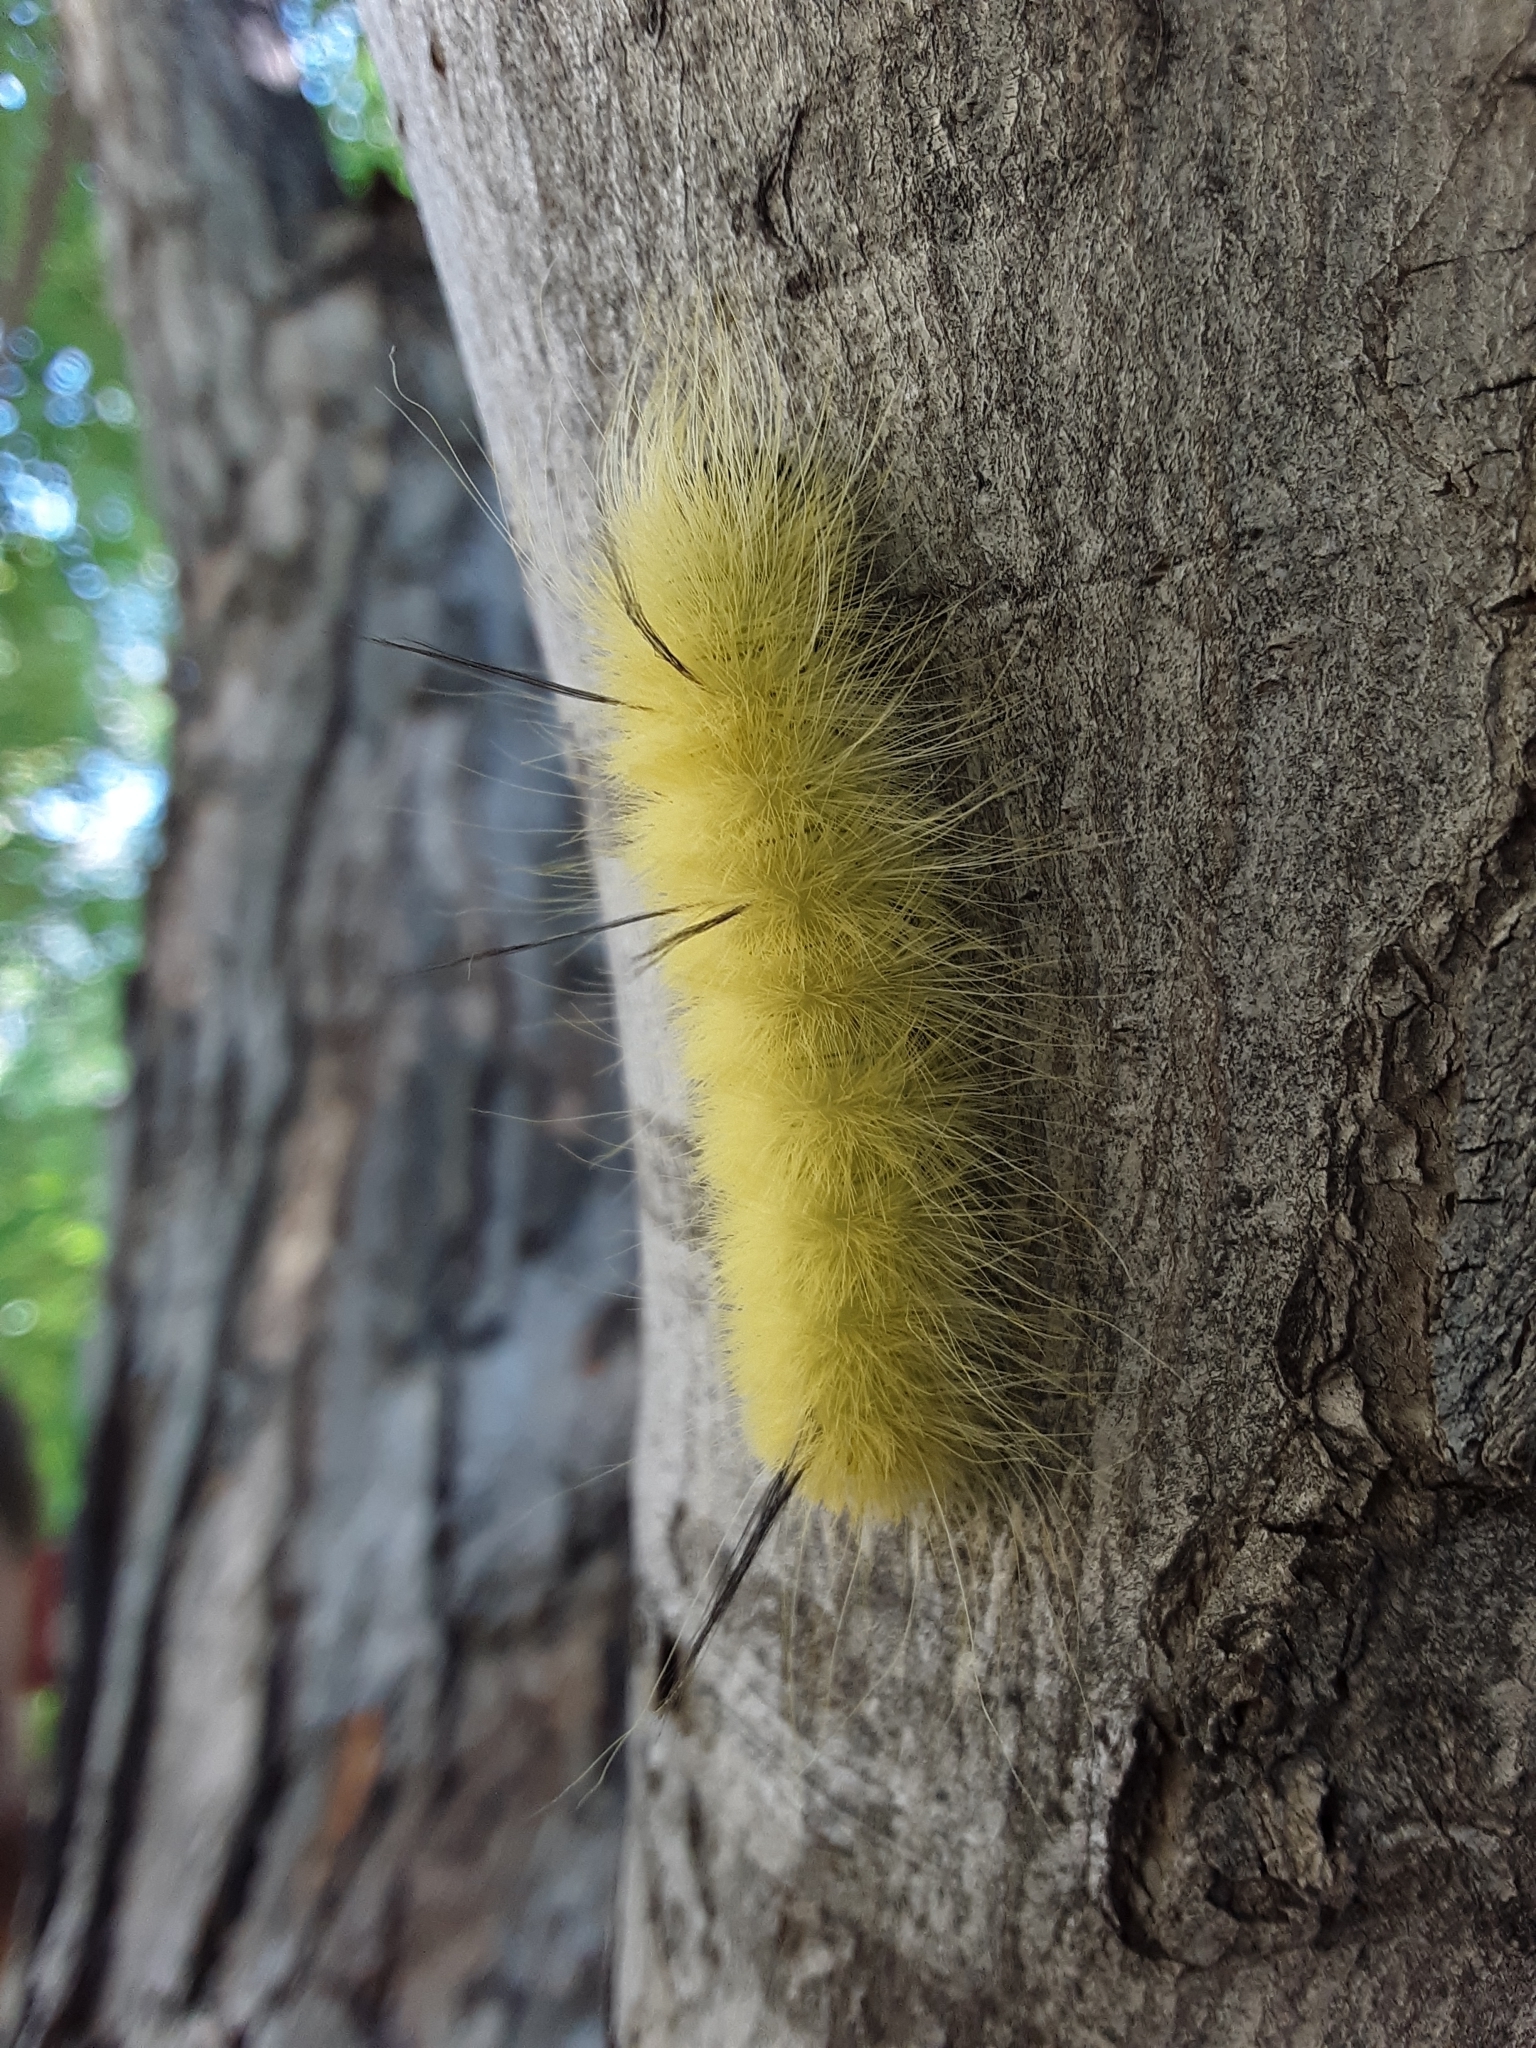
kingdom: Animalia
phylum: Arthropoda
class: Insecta
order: Lepidoptera
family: Noctuidae
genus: Acronicta
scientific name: Acronicta americana
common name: American dagger
